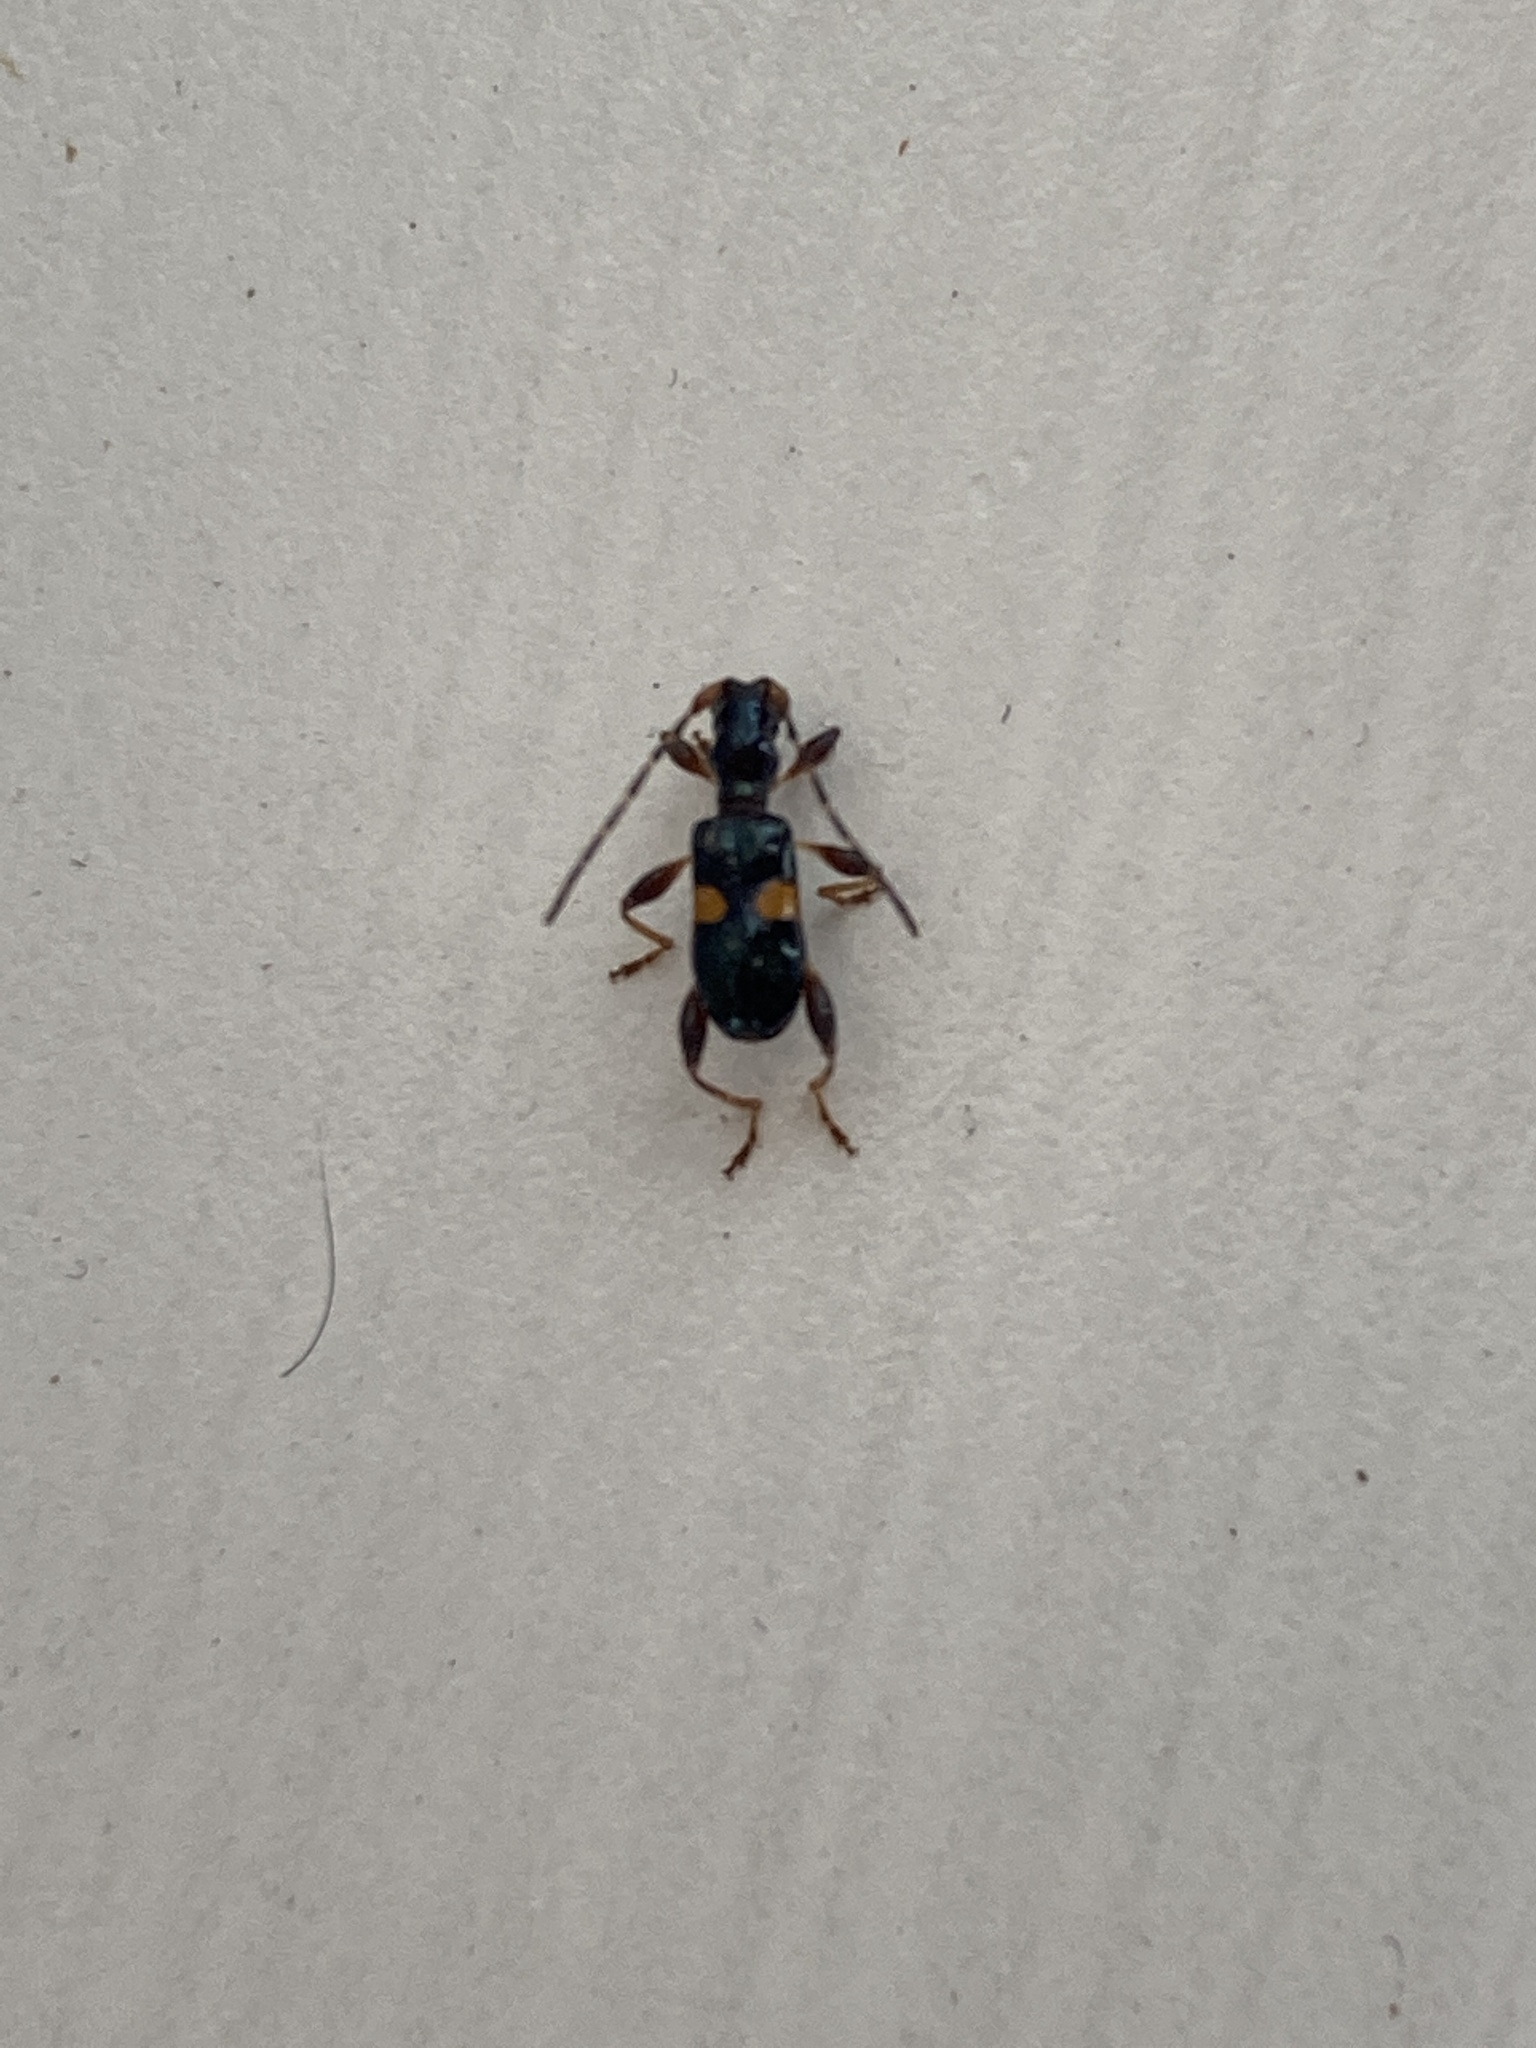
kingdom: Animalia
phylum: Arthropoda
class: Insecta
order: Coleoptera
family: Cerambycidae
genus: Zorion
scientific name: Zorion guttigerum
